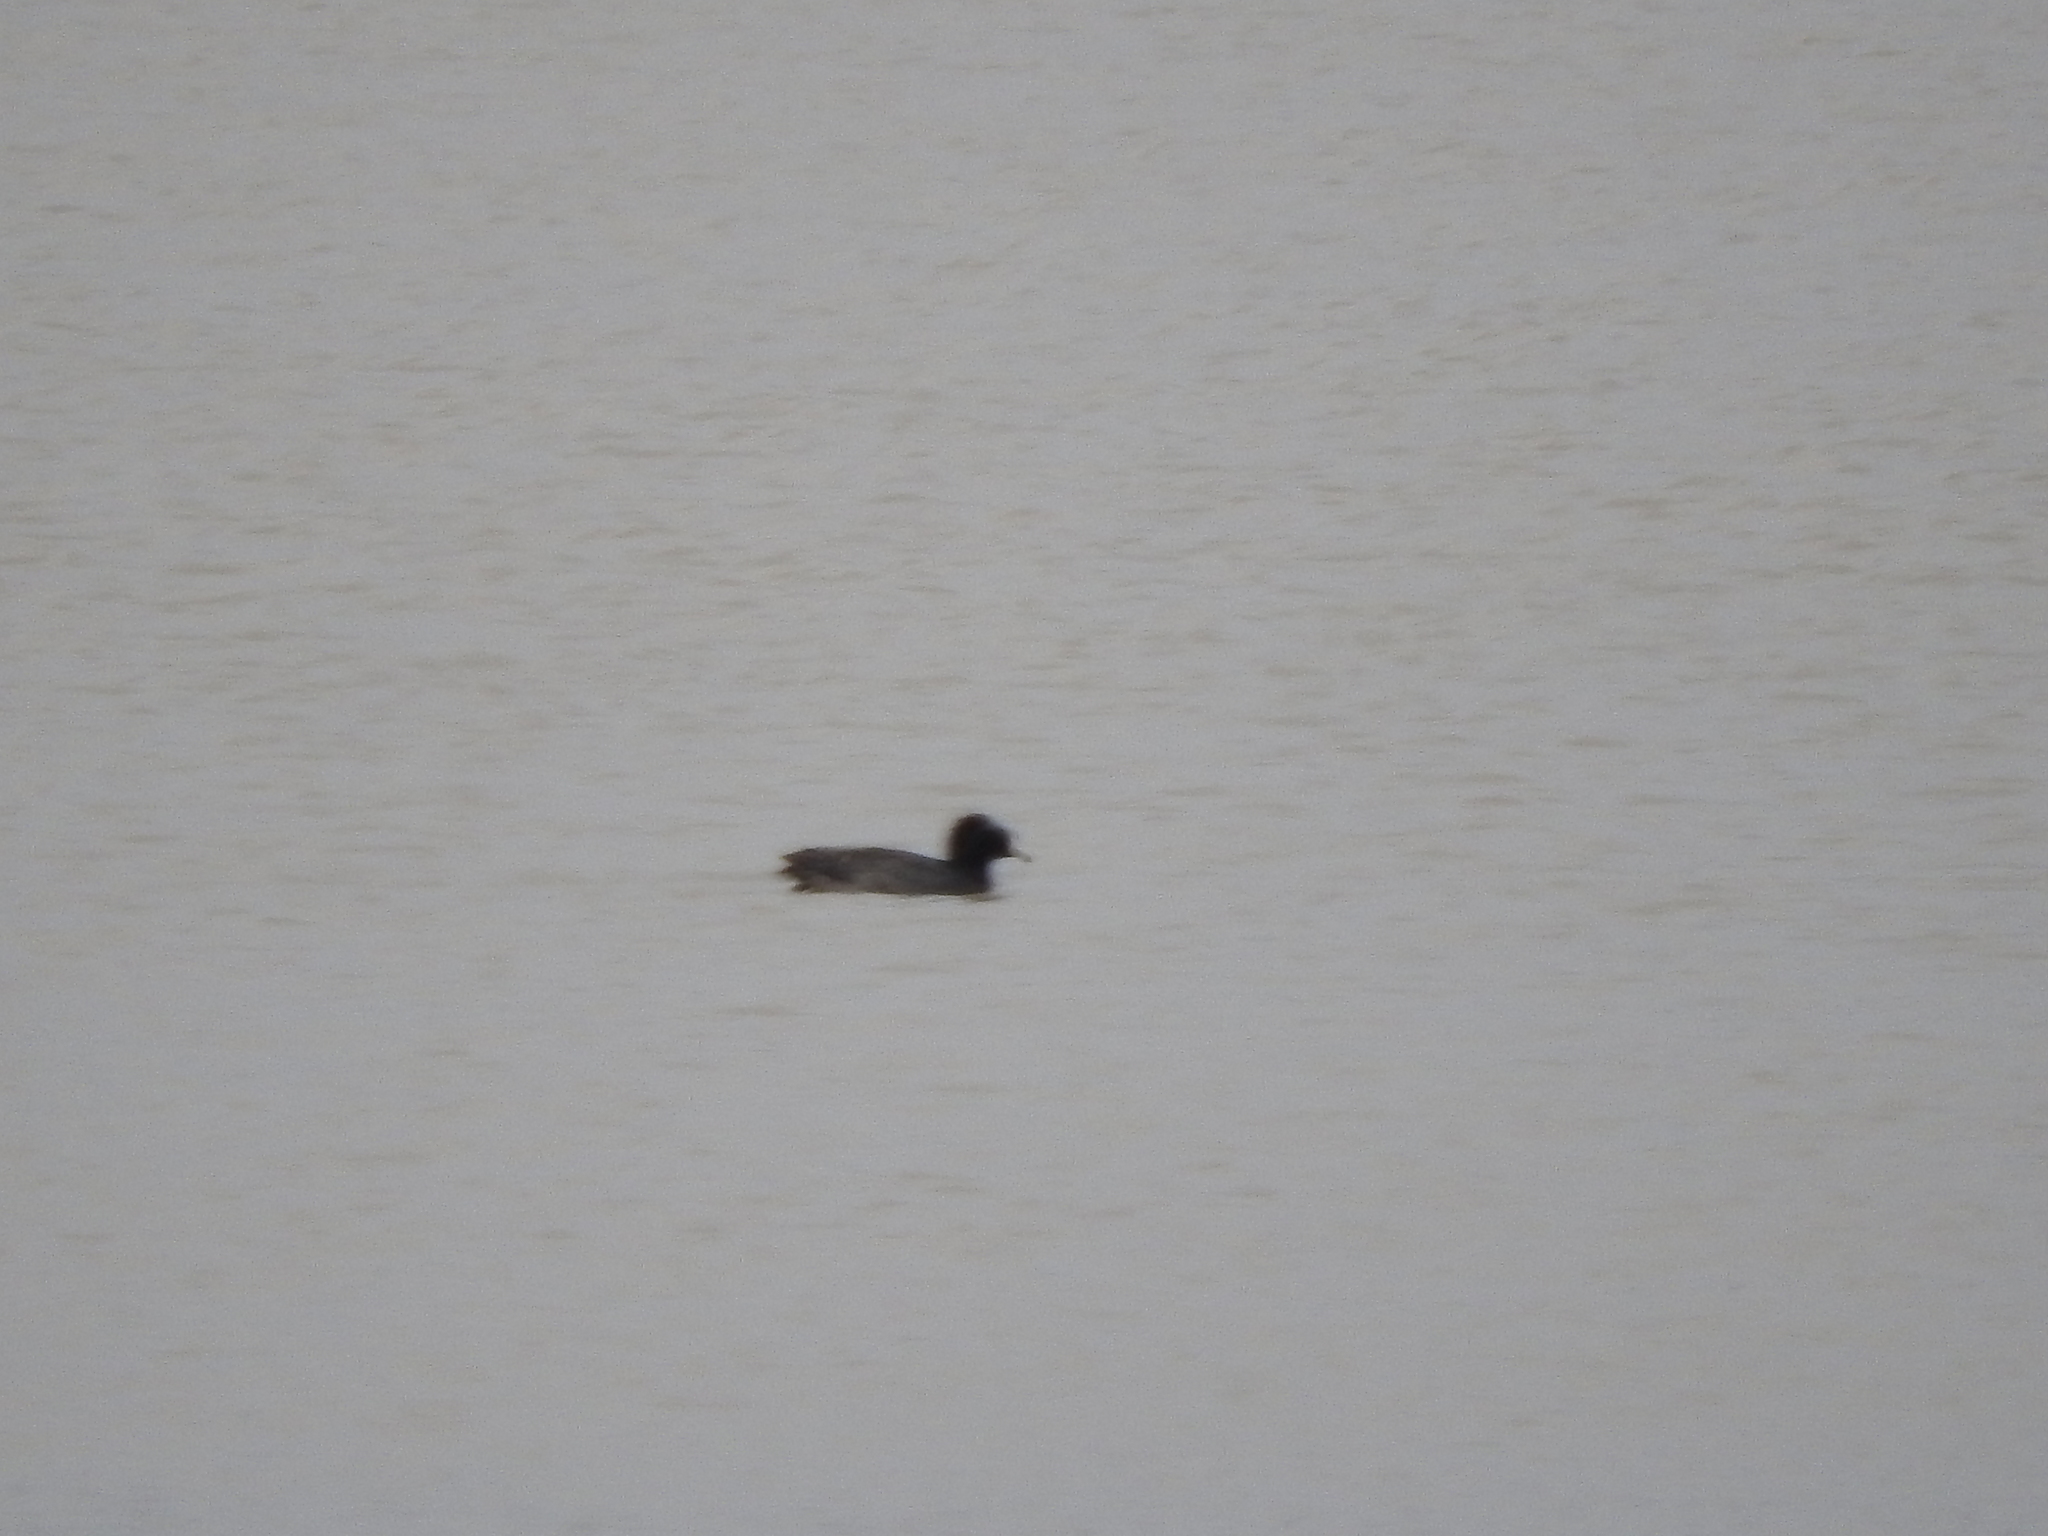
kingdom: Animalia
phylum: Chordata
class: Aves
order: Gruiformes
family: Rallidae
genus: Fulica
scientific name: Fulica americana
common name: American coot
